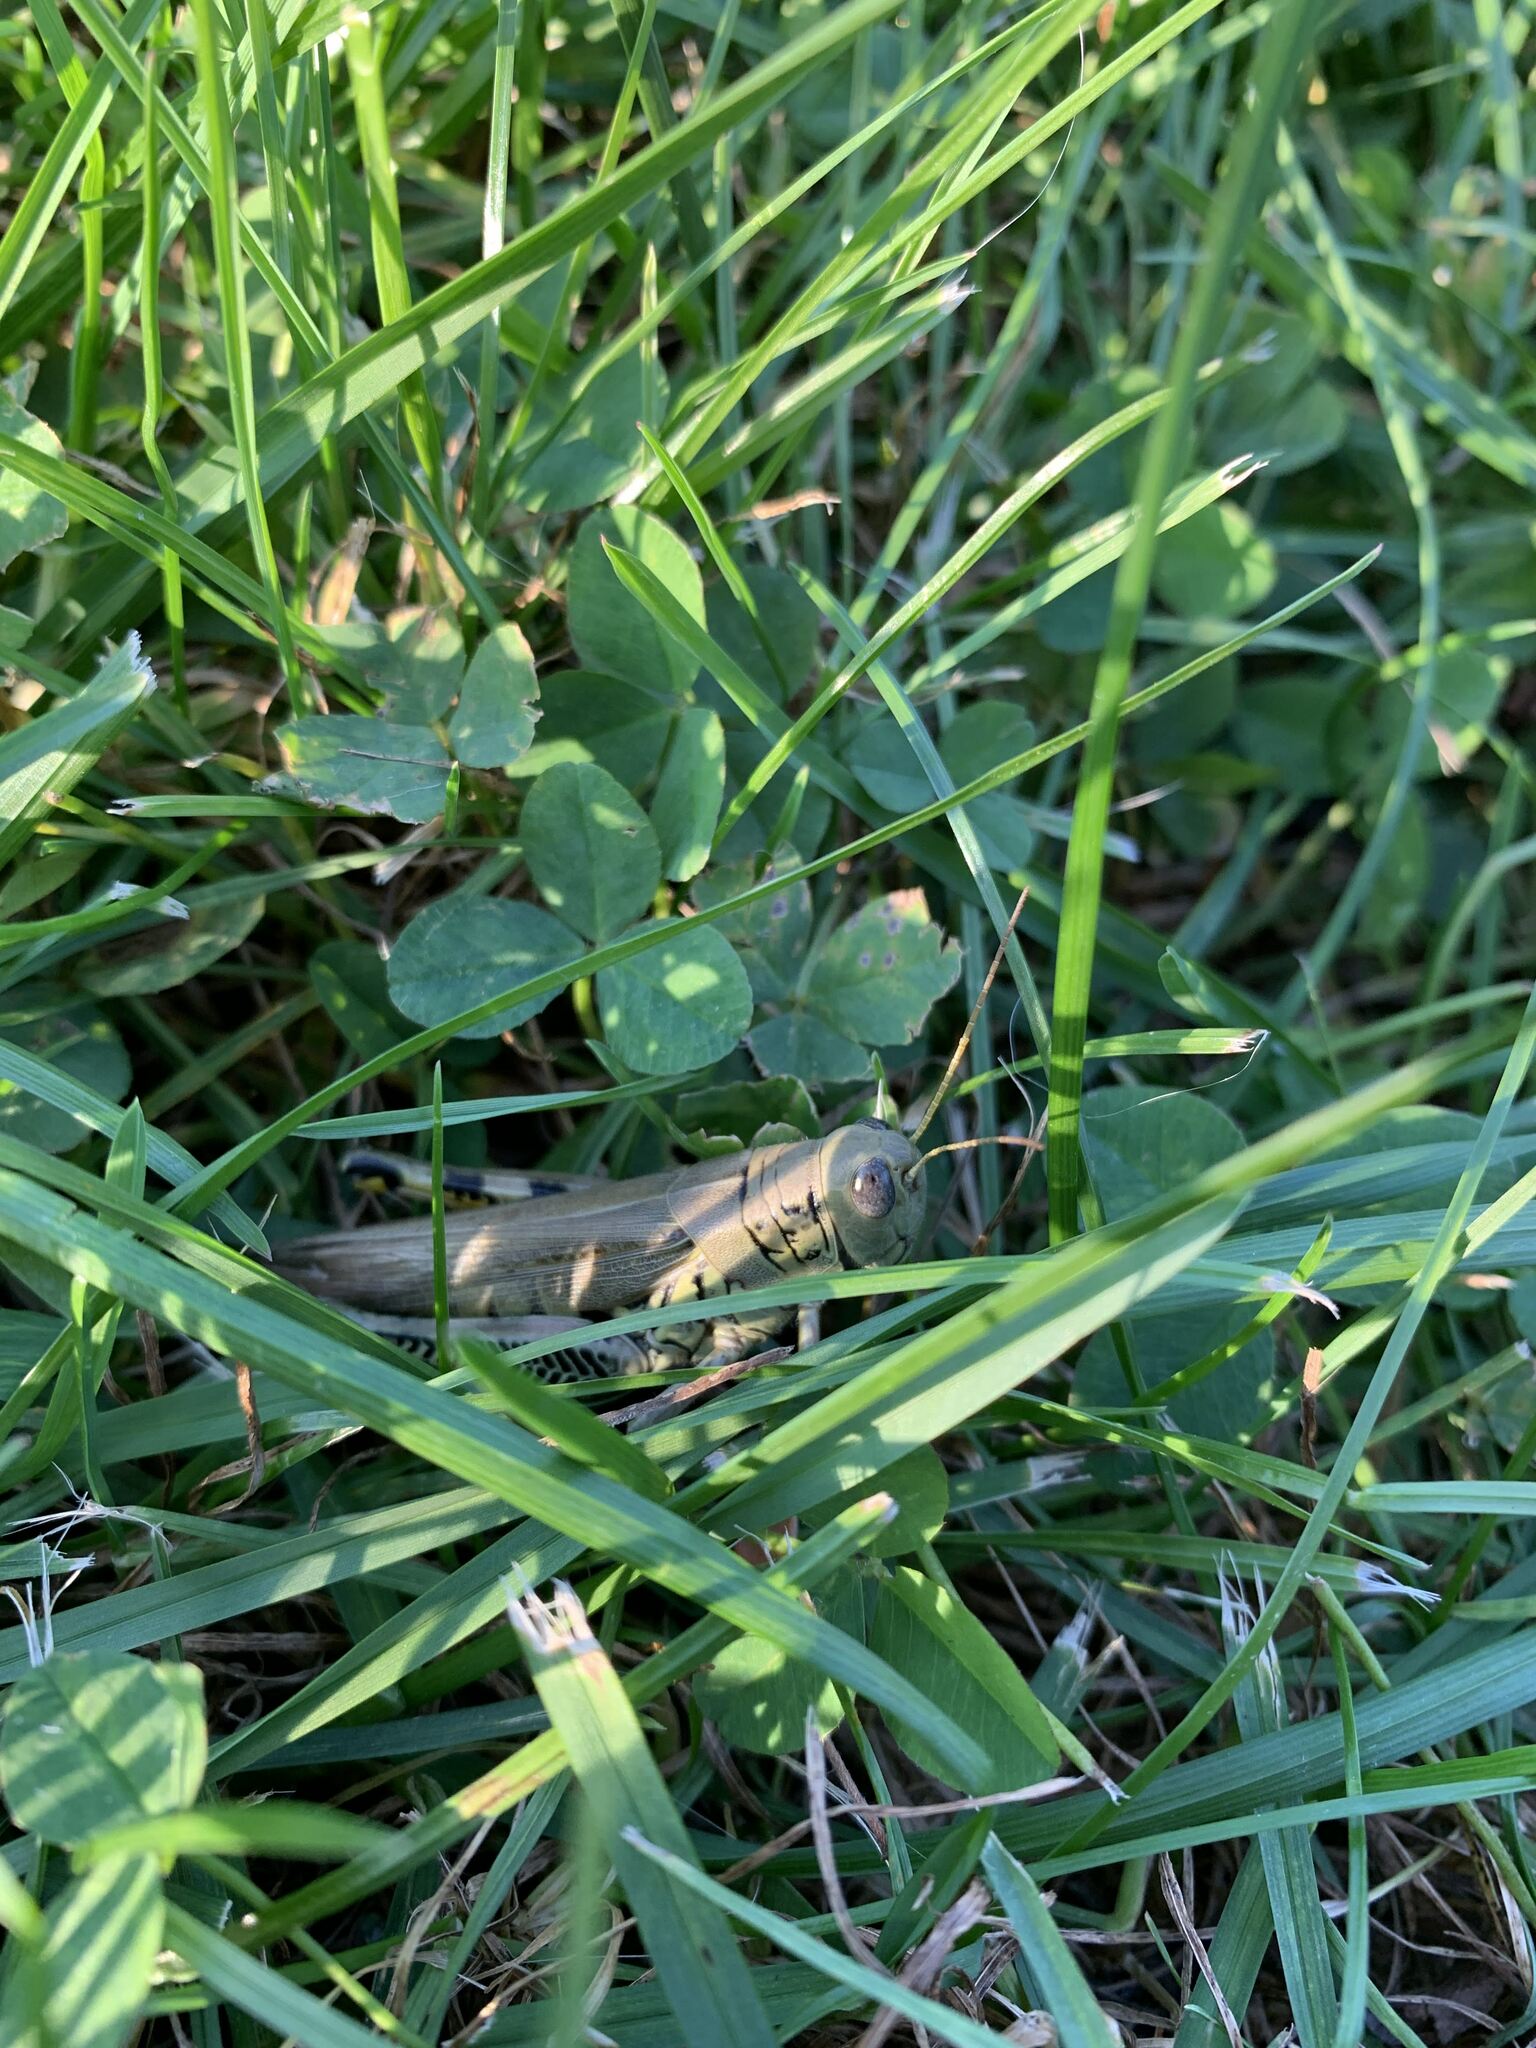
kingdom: Animalia
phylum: Arthropoda
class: Insecta
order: Orthoptera
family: Acrididae
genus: Melanoplus
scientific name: Melanoplus differentialis
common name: Differential grasshopper
